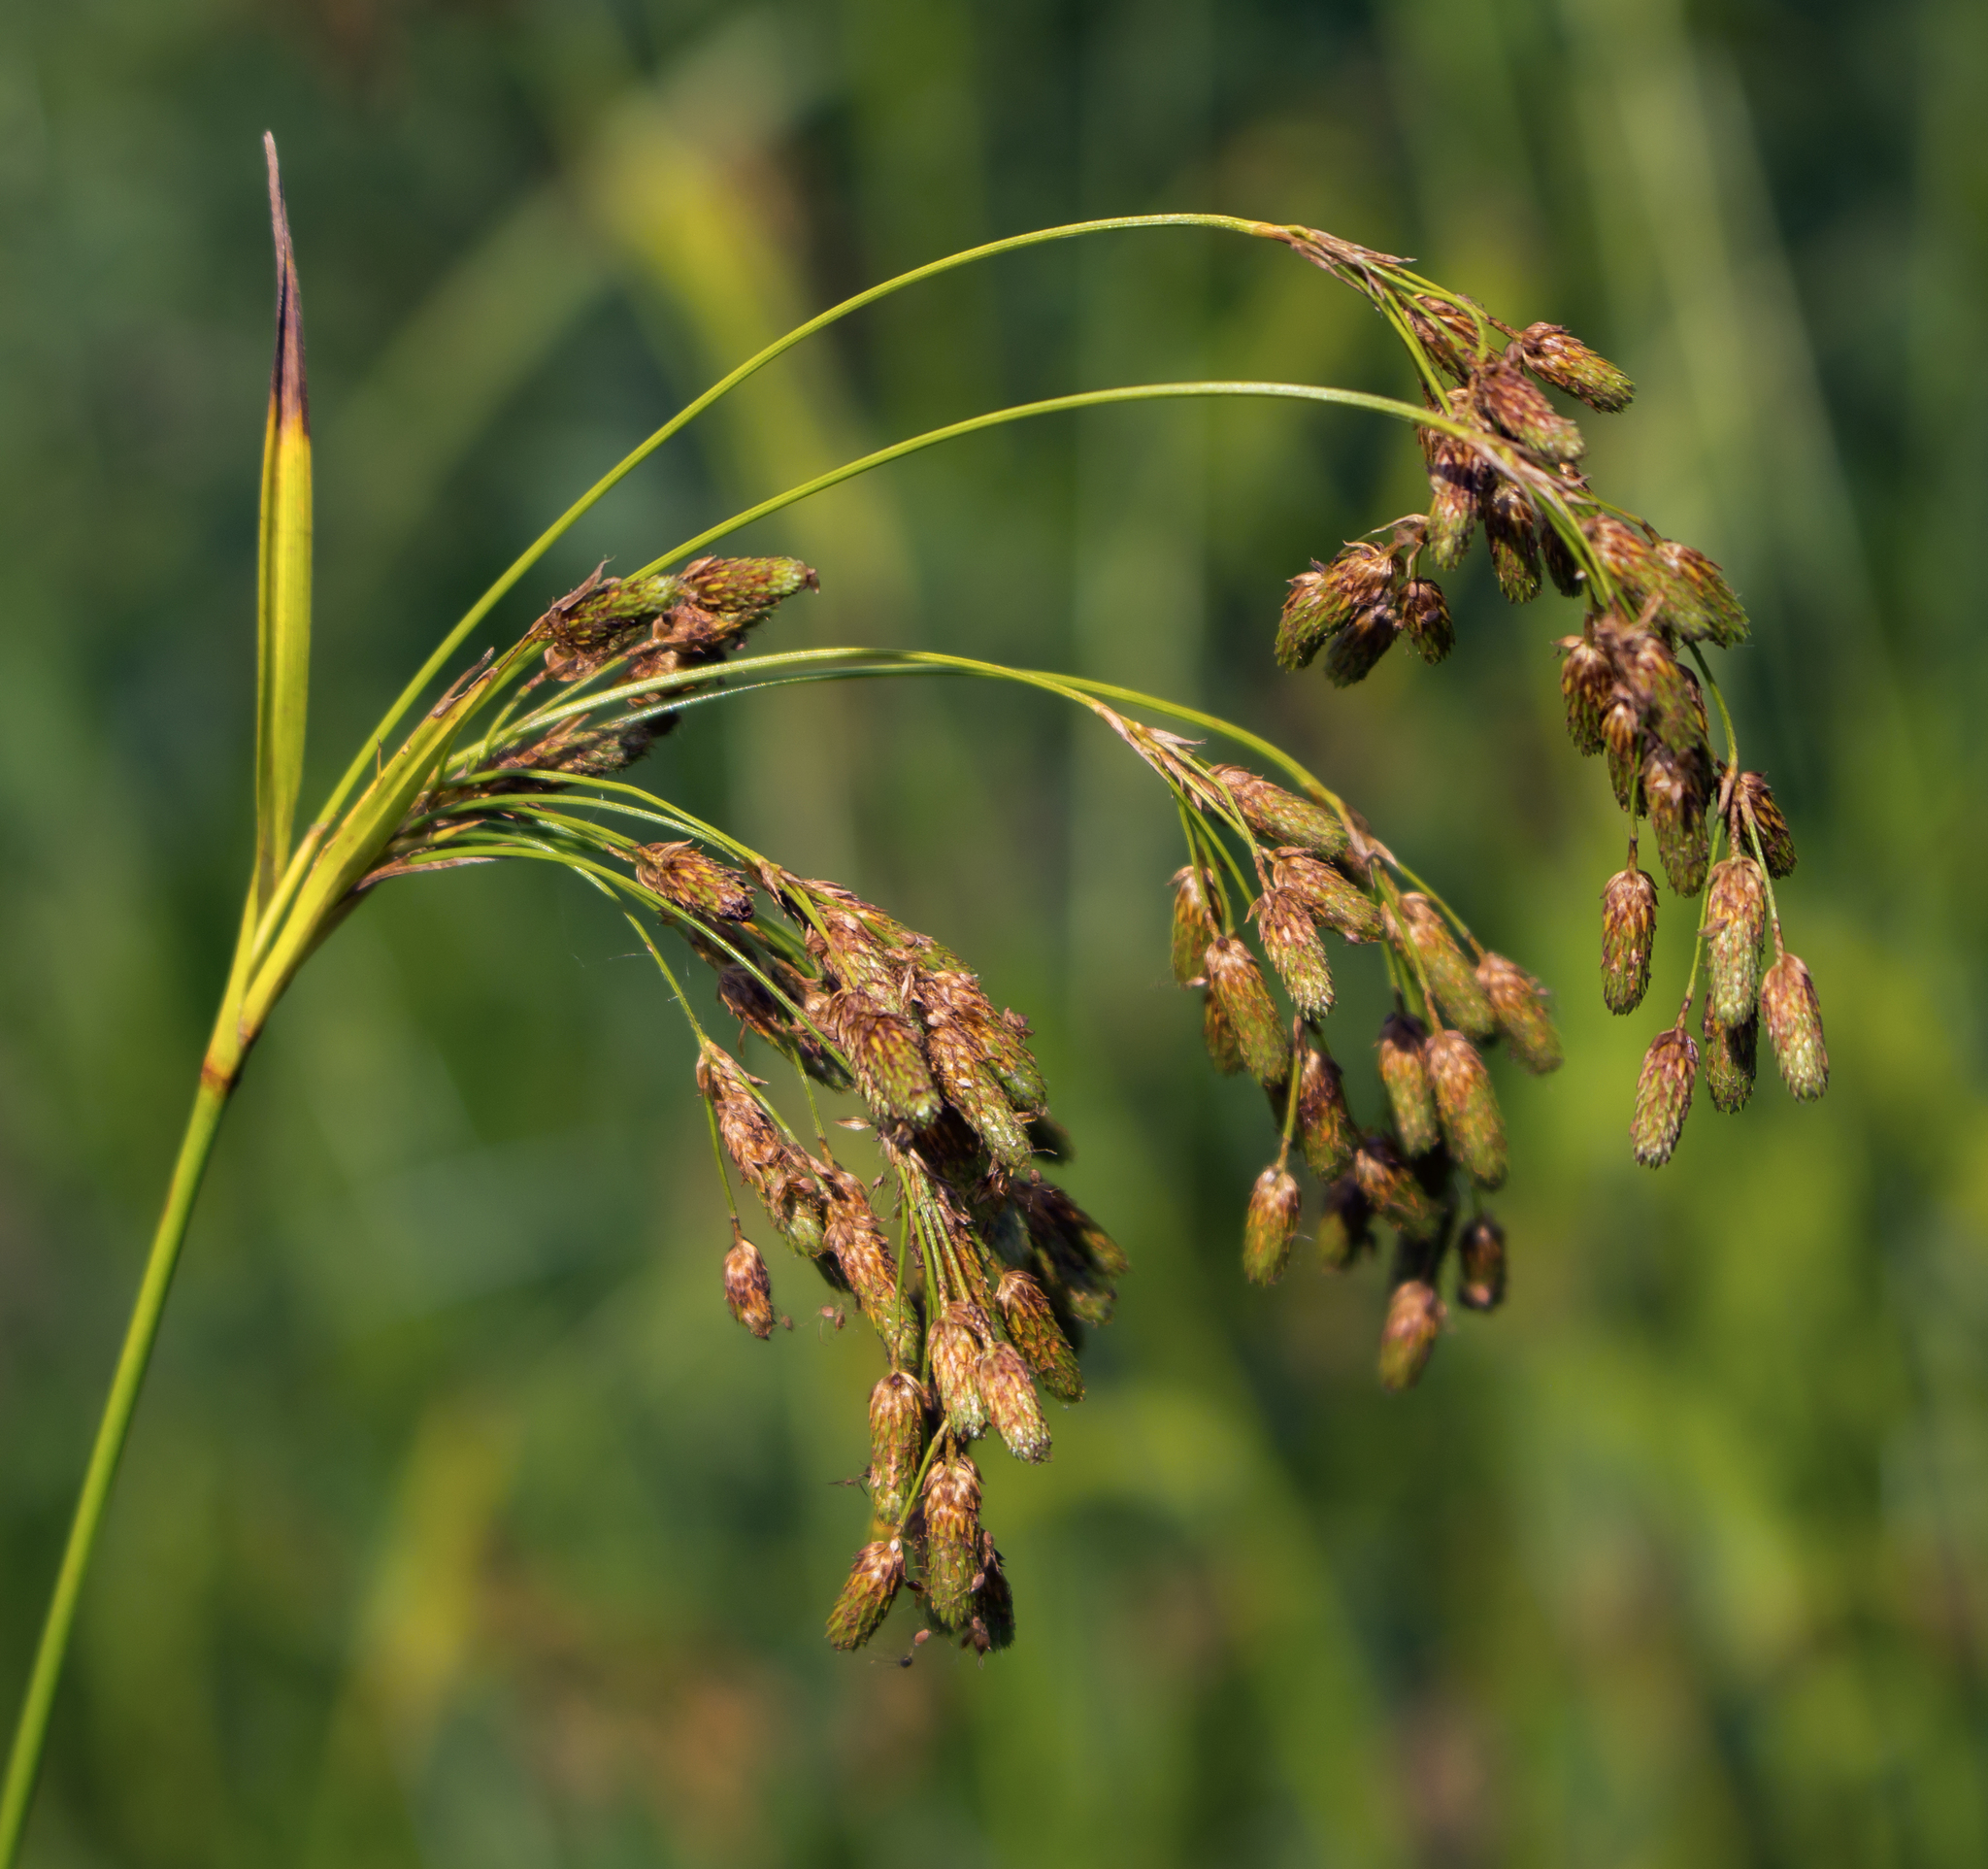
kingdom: Plantae
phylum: Tracheophyta
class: Liliopsida
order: Poales
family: Cyperaceae
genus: Scirpus
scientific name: Scirpus pendulus
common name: Nodding bulrush
